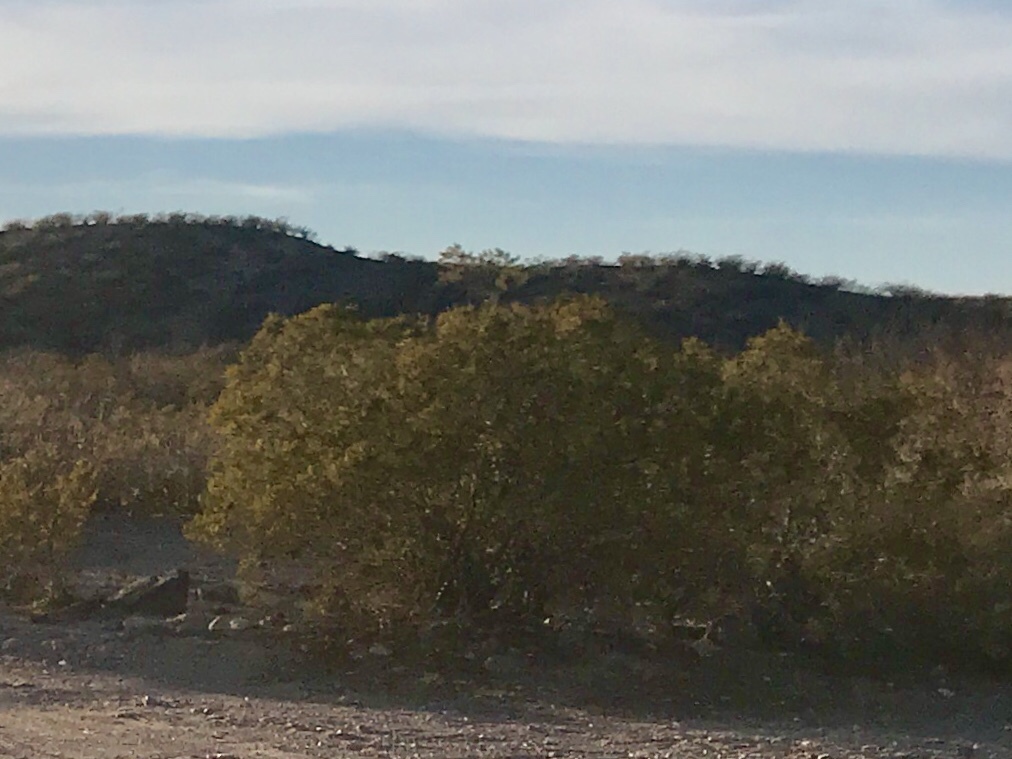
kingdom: Plantae
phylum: Tracheophyta
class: Magnoliopsida
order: Zygophyllales
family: Zygophyllaceae
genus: Larrea
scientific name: Larrea tridentata
